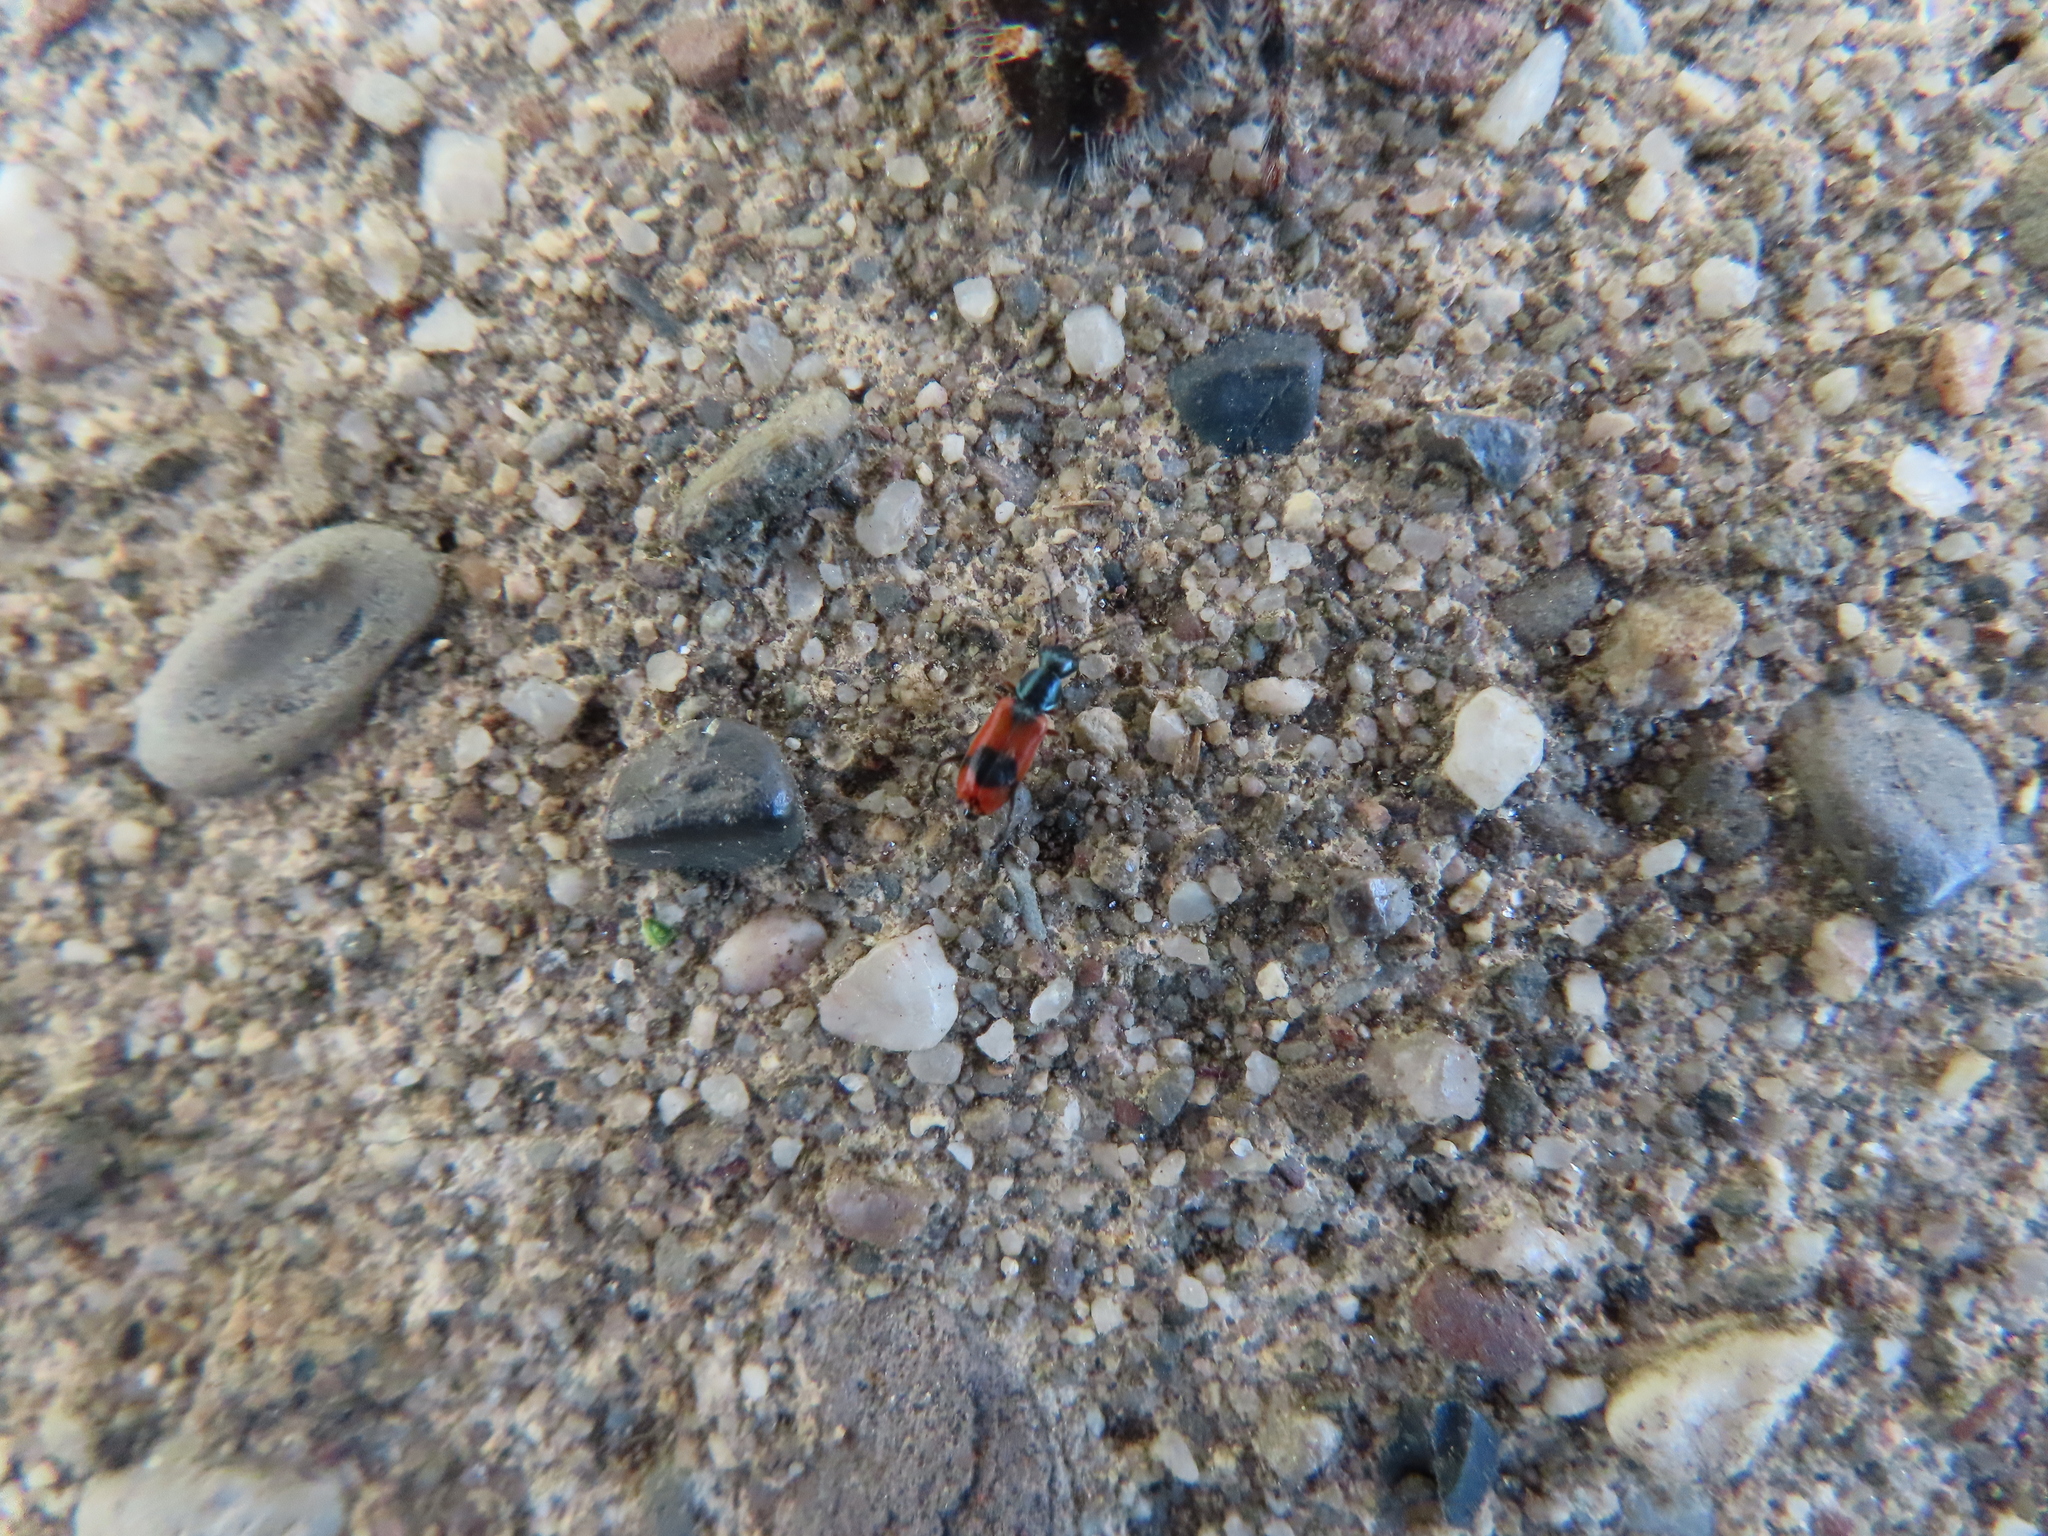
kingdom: Animalia
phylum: Arthropoda
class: Insecta
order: Coleoptera
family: Melyridae
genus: Anthocomus
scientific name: Anthocomus equestris
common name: Black-banded soft-winged flower beetle
